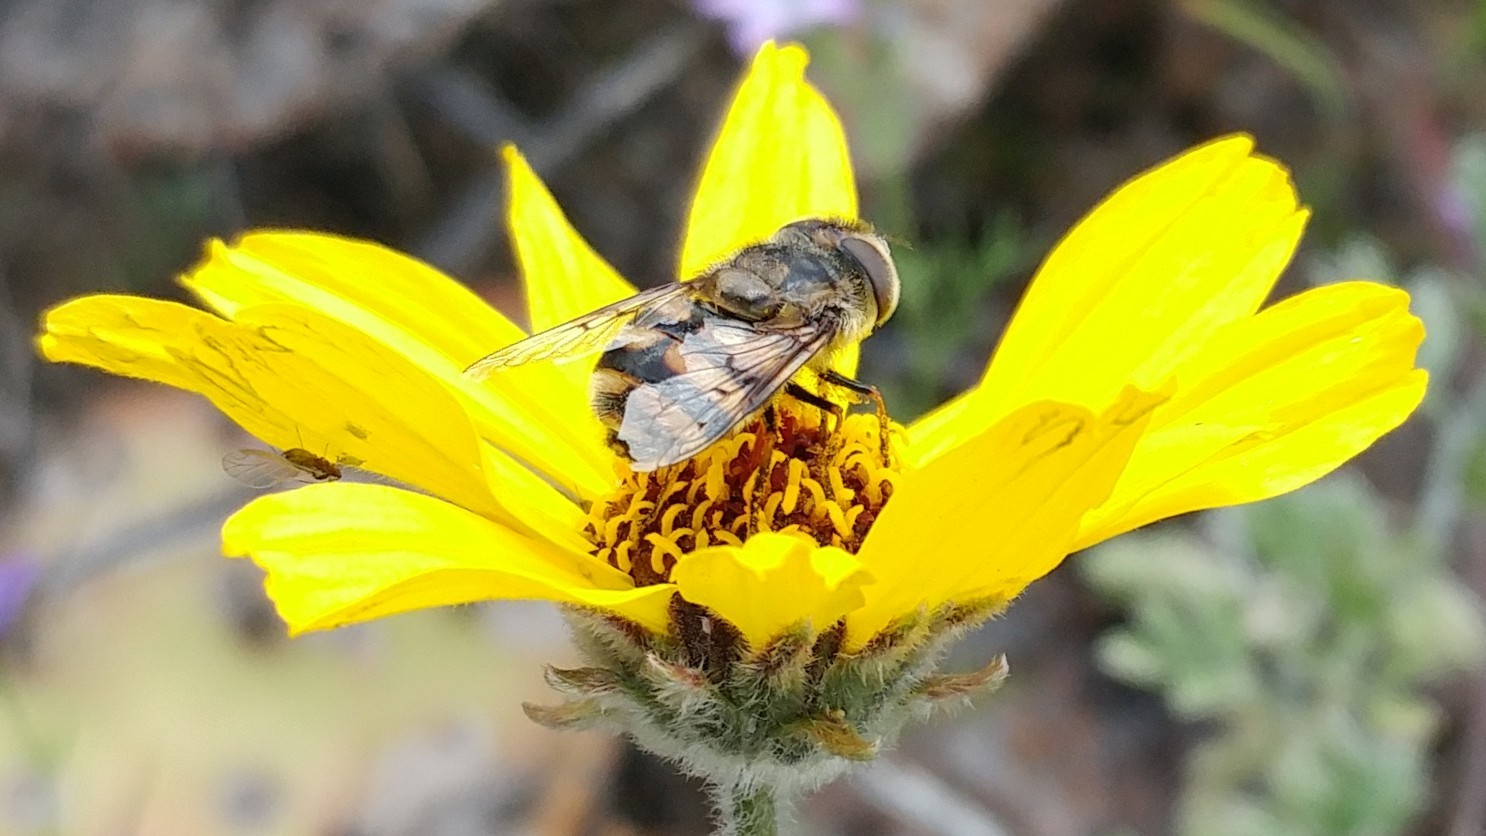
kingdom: Animalia
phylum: Arthropoda
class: Insecta
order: Diptera
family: Syrphidae
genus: Copestylum
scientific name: Copestylum avidum
